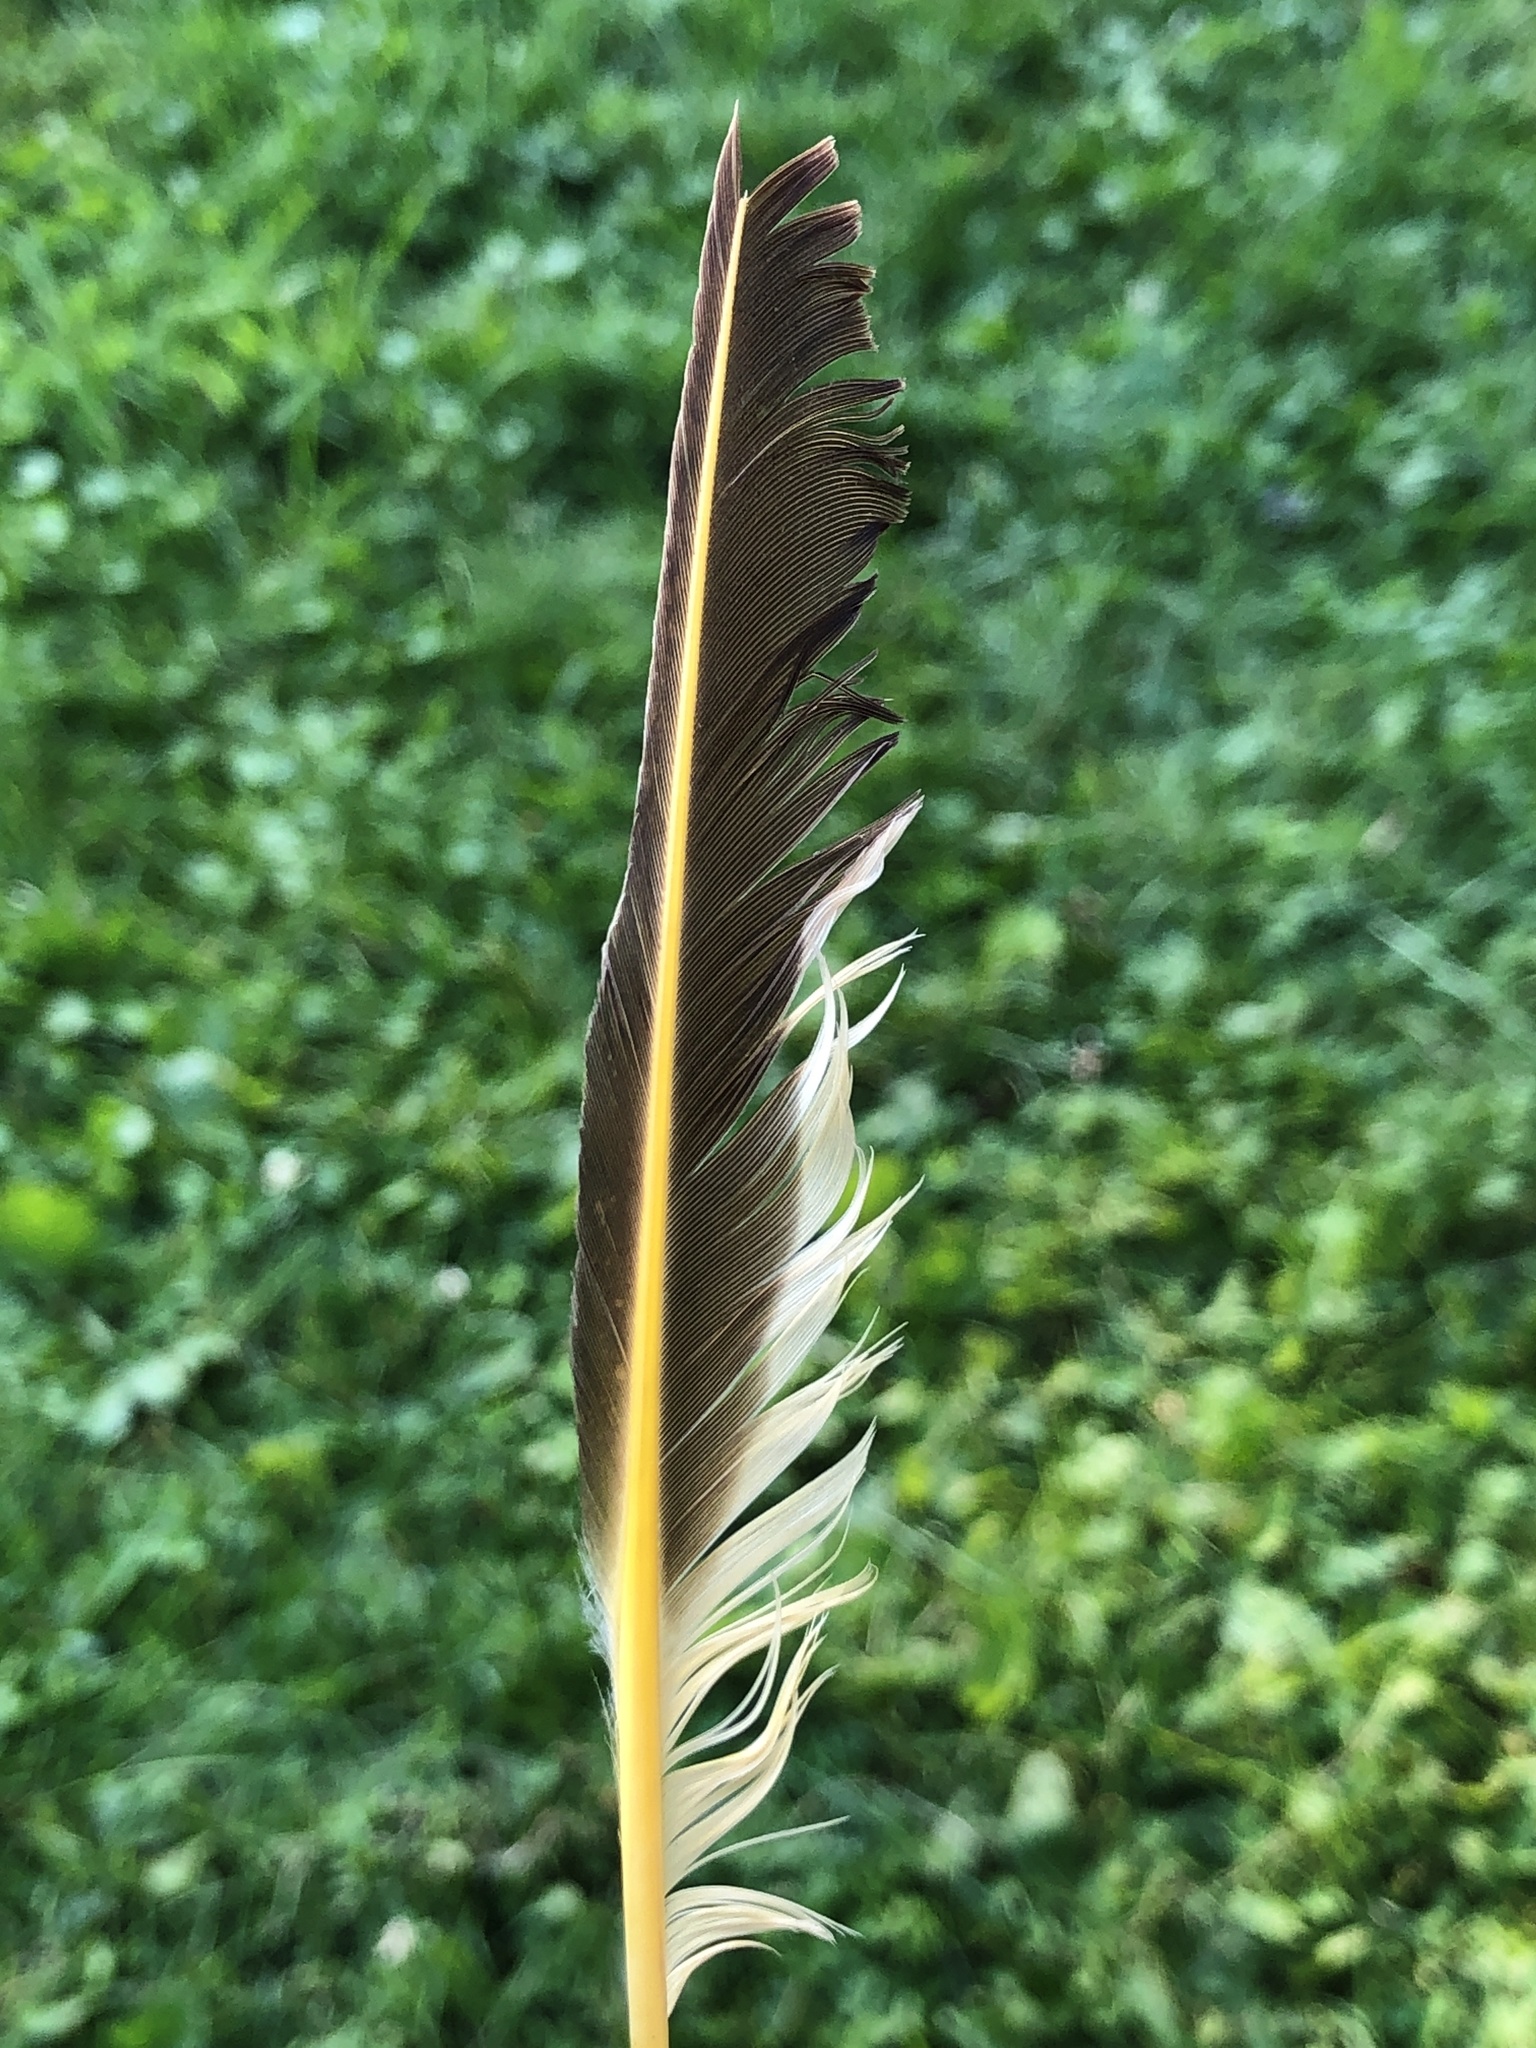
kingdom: Animalia
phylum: Chordata
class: Aves
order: Piciformes
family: Picidae
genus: Colaptes
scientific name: Colaptes auratus
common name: Northern flicker
